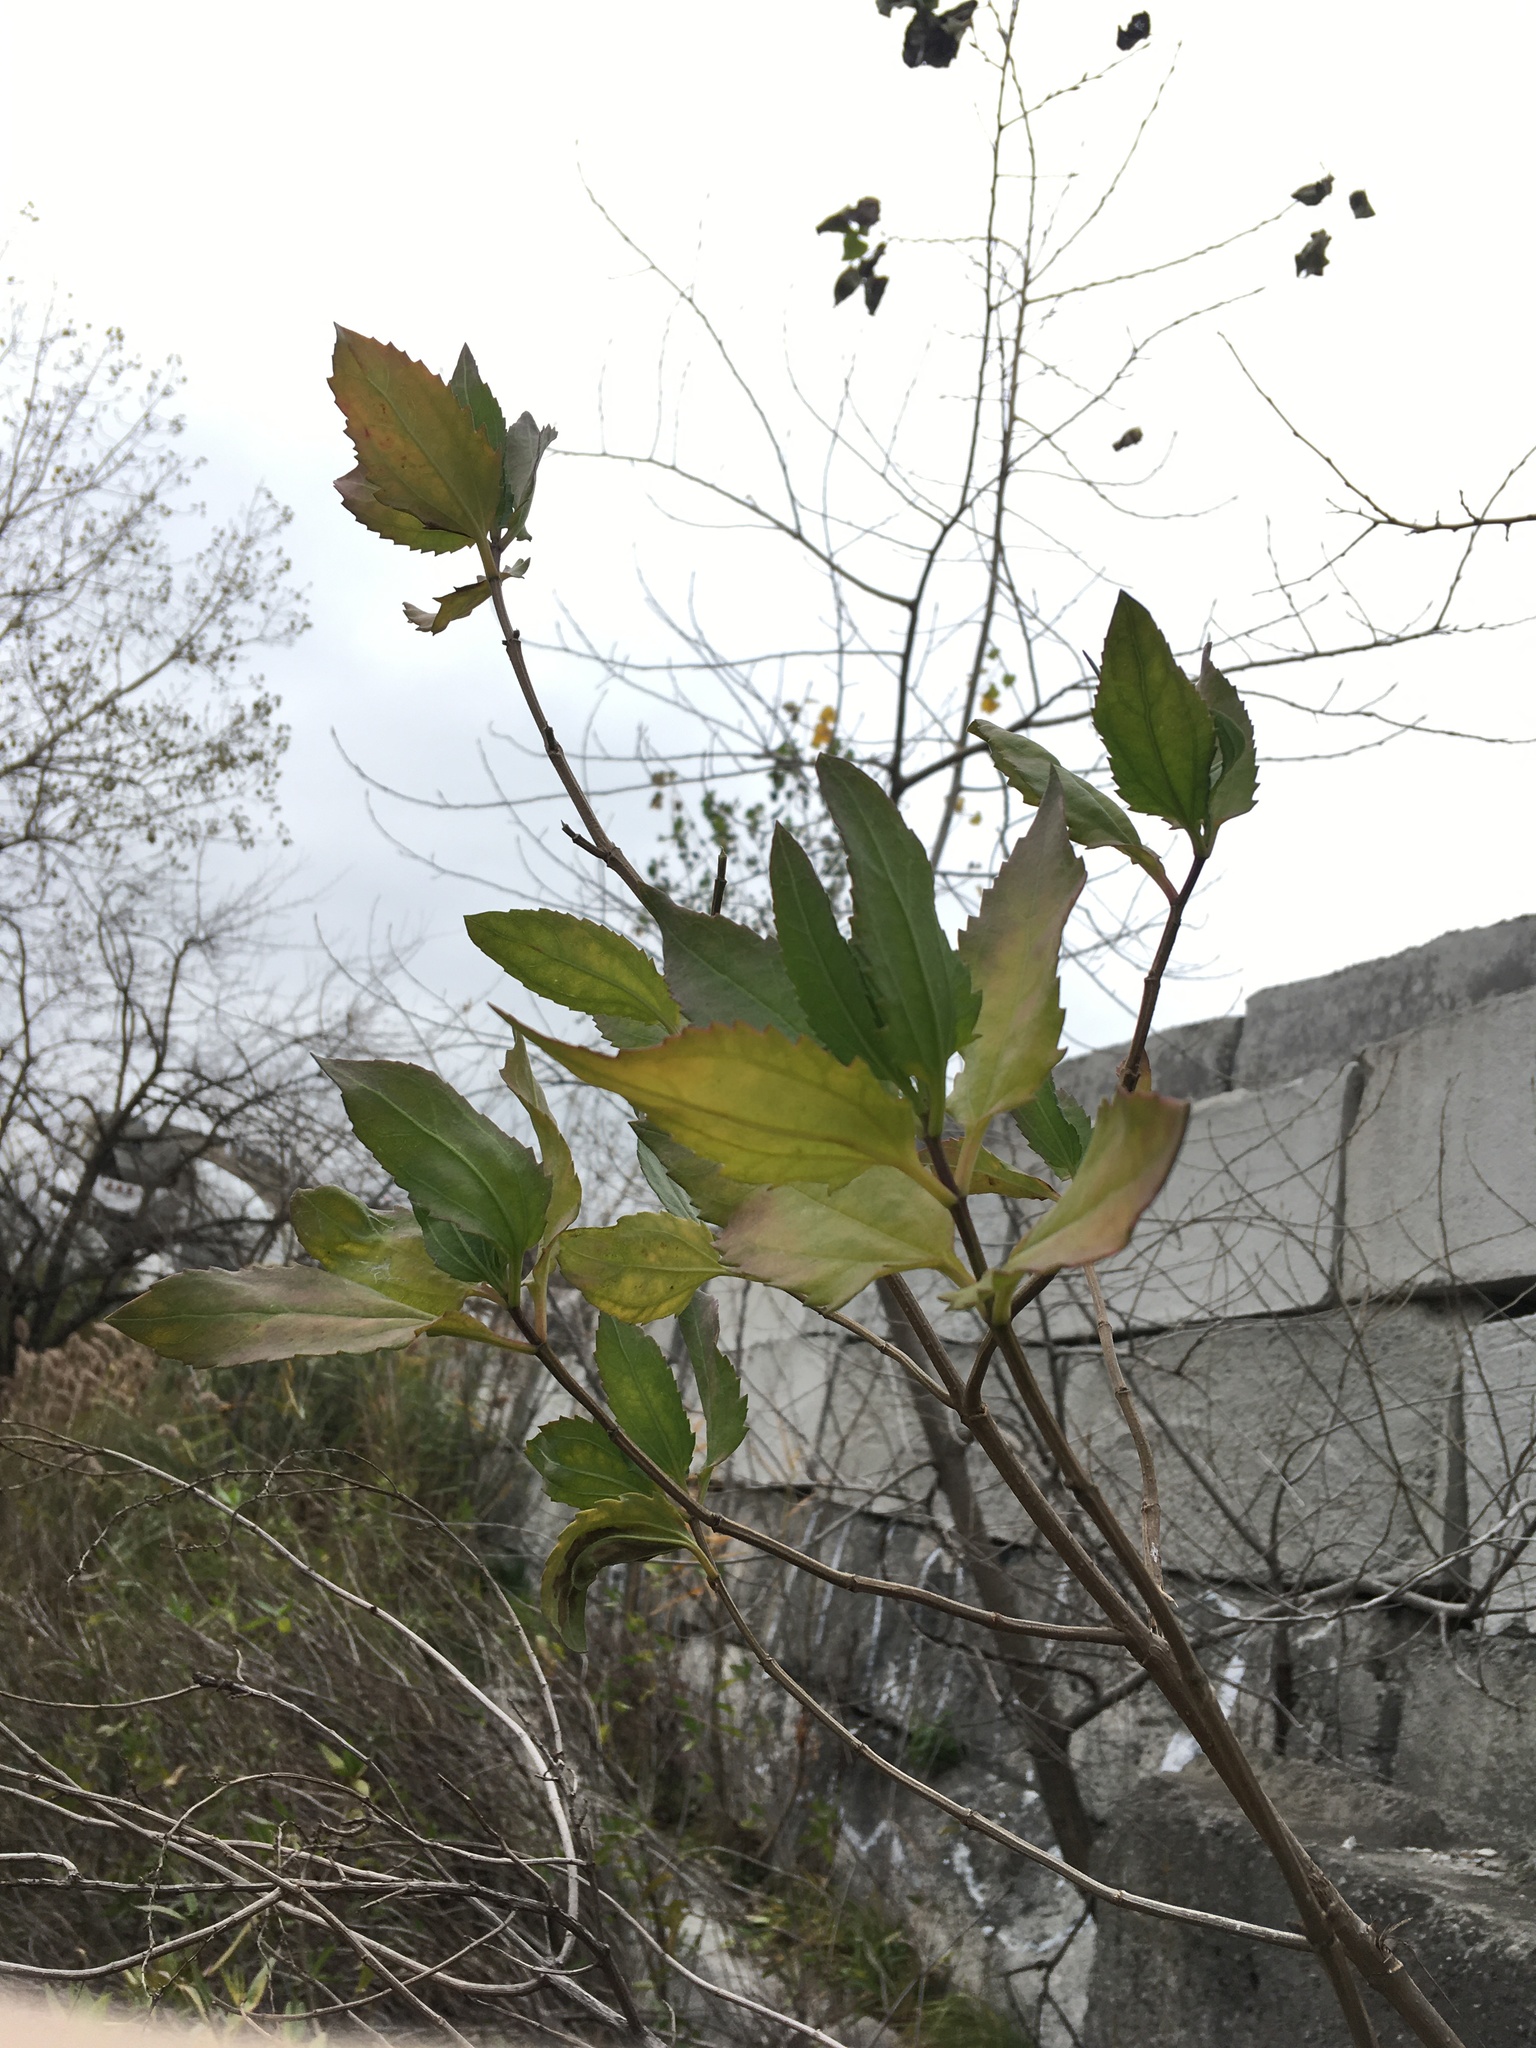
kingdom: Plantae
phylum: Tracheophyta
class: Magnoliopsida
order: Asterales
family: Asteraceae
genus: Iva
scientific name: Iva frutescens
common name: Big-leaved marsh-elder
